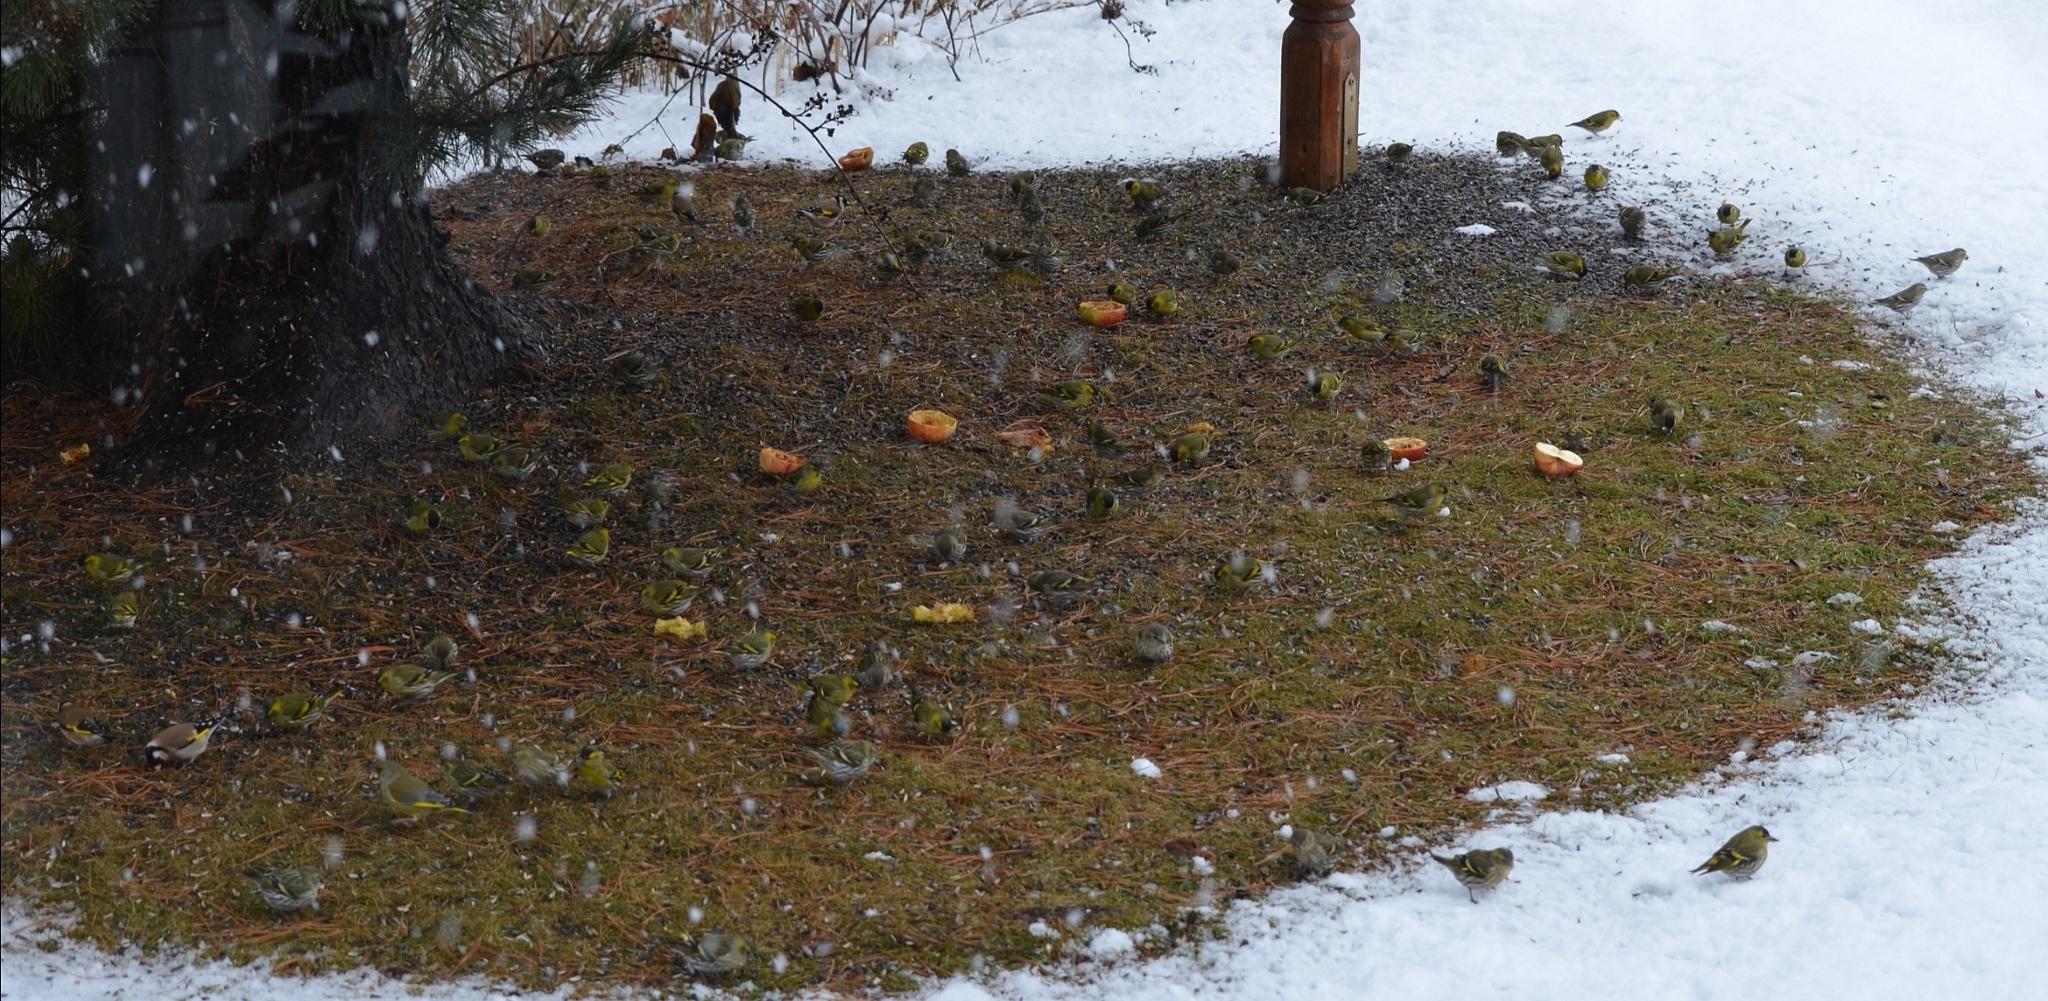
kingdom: Animalia
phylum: Chordata
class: Aves
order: Passeriformes
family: Fringillidae
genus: Spinus
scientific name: Spinus spinus
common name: Eurasian siskin
